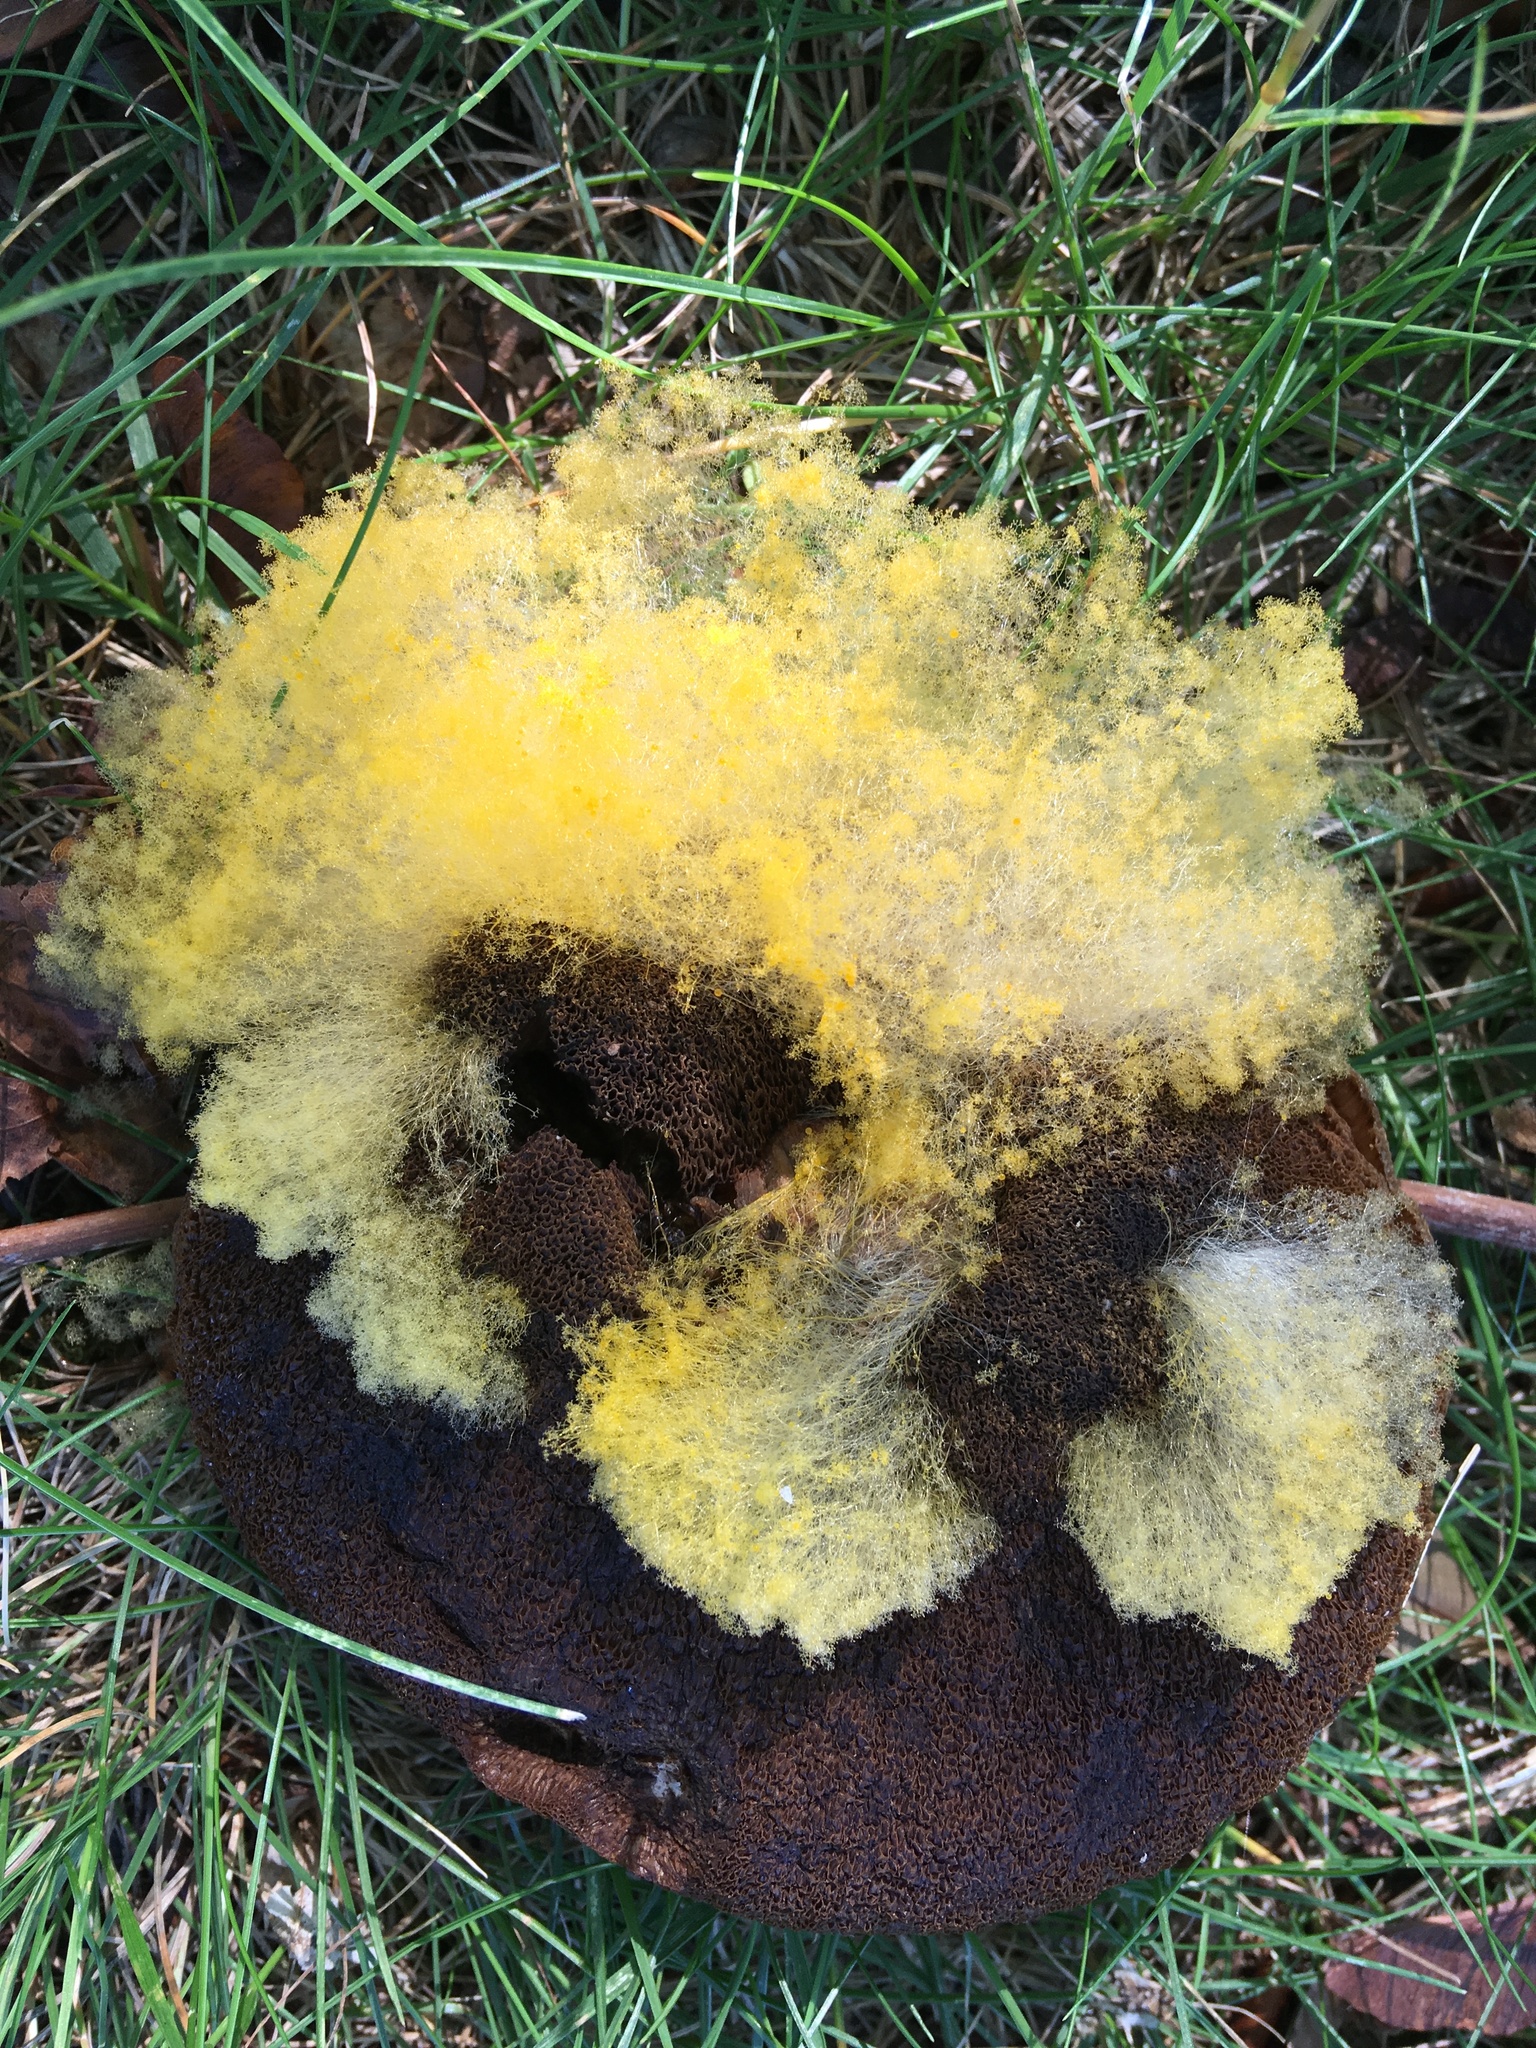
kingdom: Fungi
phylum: Mucoromycota
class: Mucoromycetes
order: Mucorales
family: Rhizopodaceae
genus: Syzygites
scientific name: Syzygites megalocarpus
